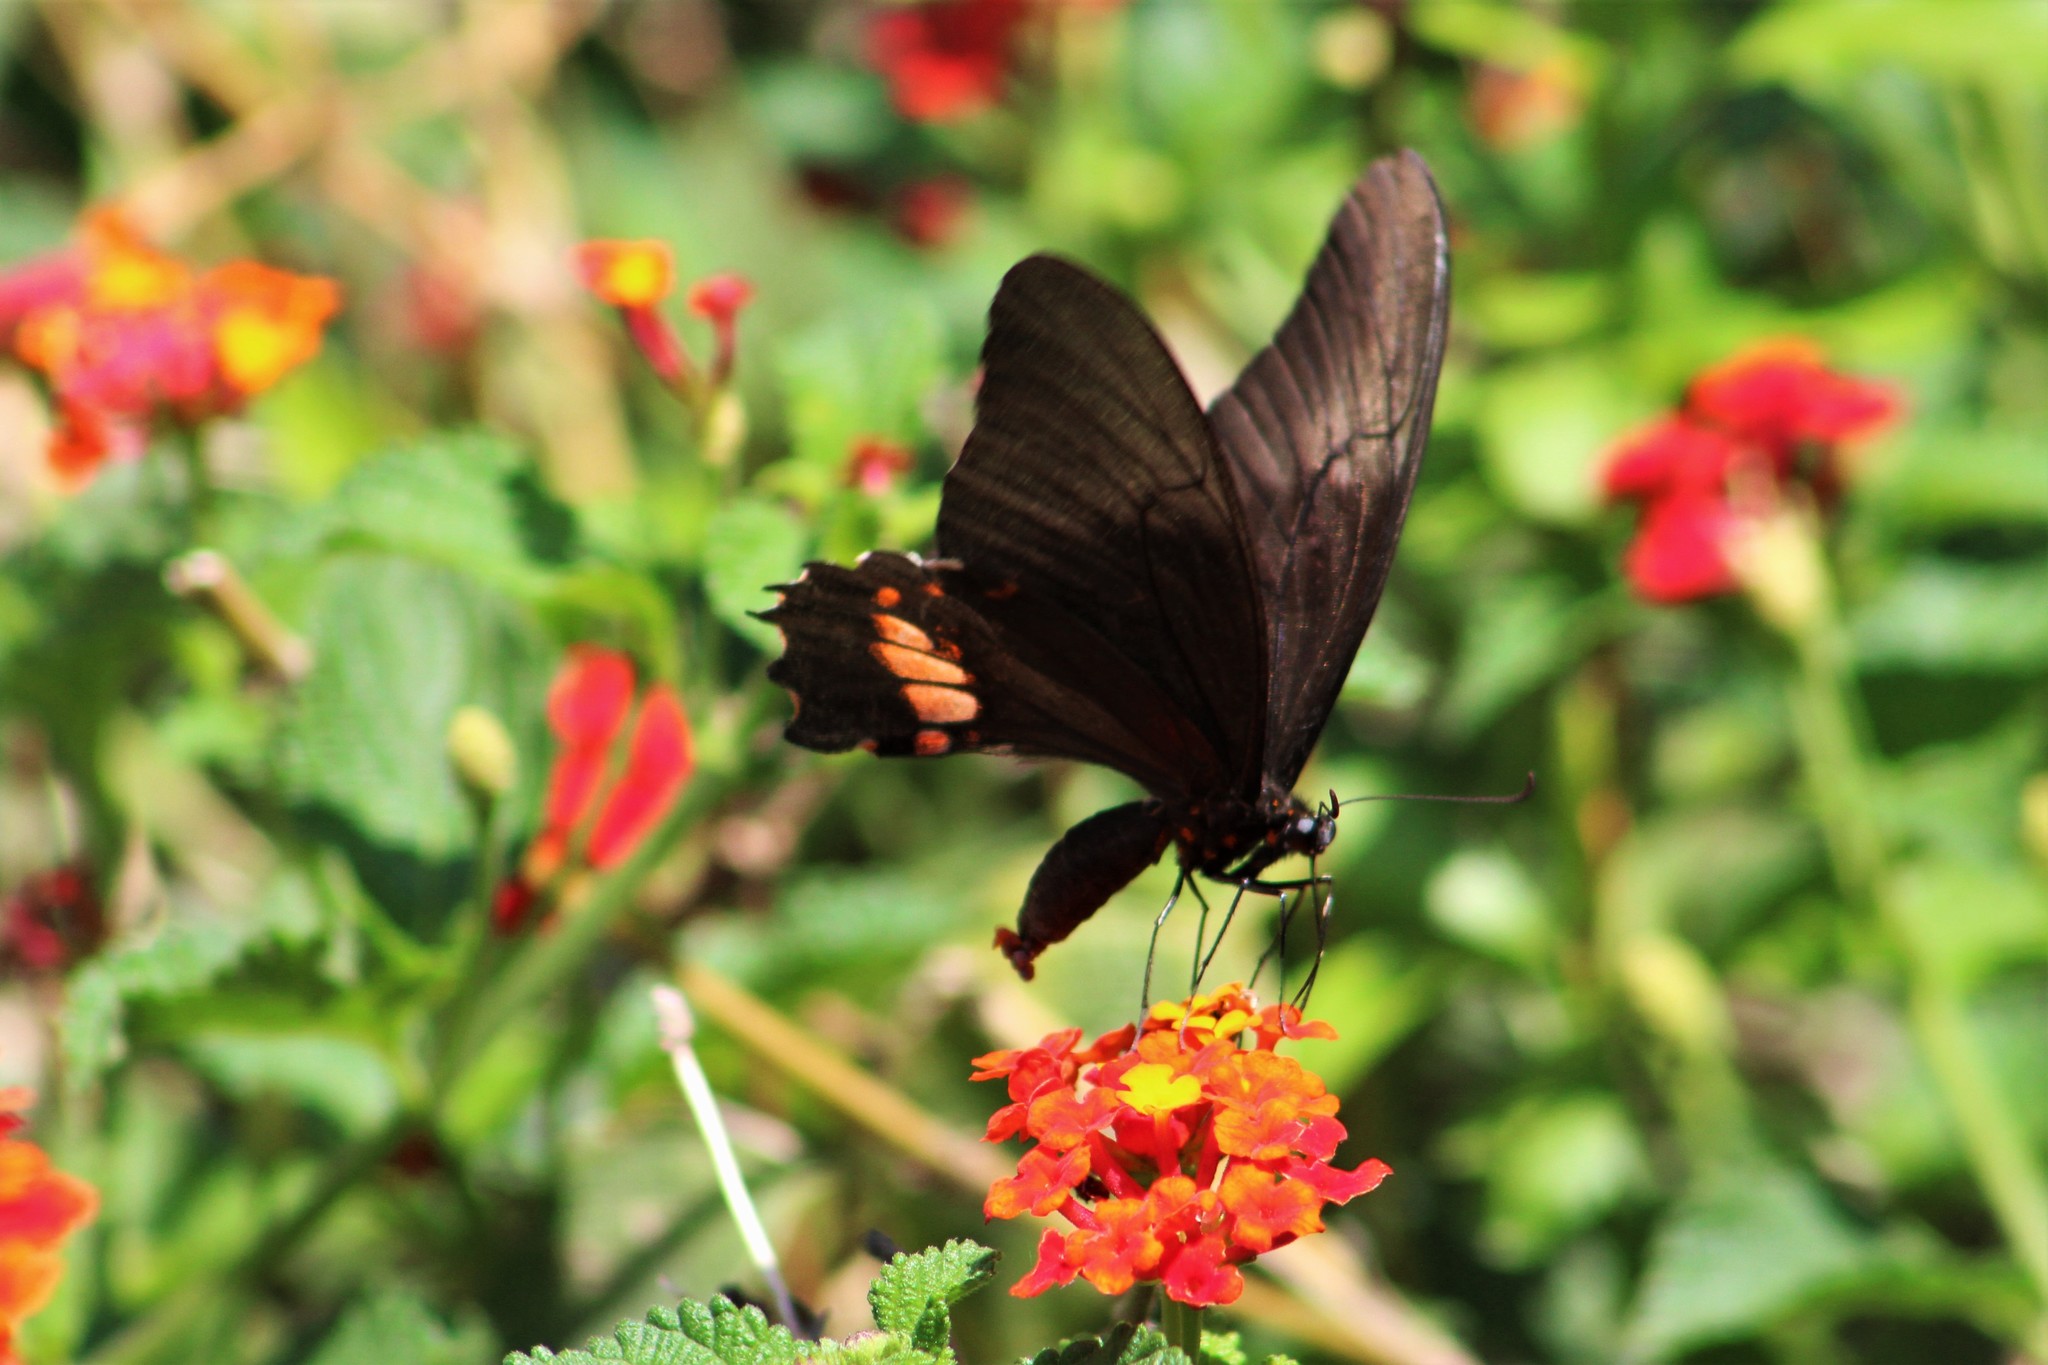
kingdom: Animalia
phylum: Arthropoda
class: Insecta
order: Lepidoptera
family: Papilionidae
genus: Papilio
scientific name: Papilio anchisiades
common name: Idaes swallowtail
